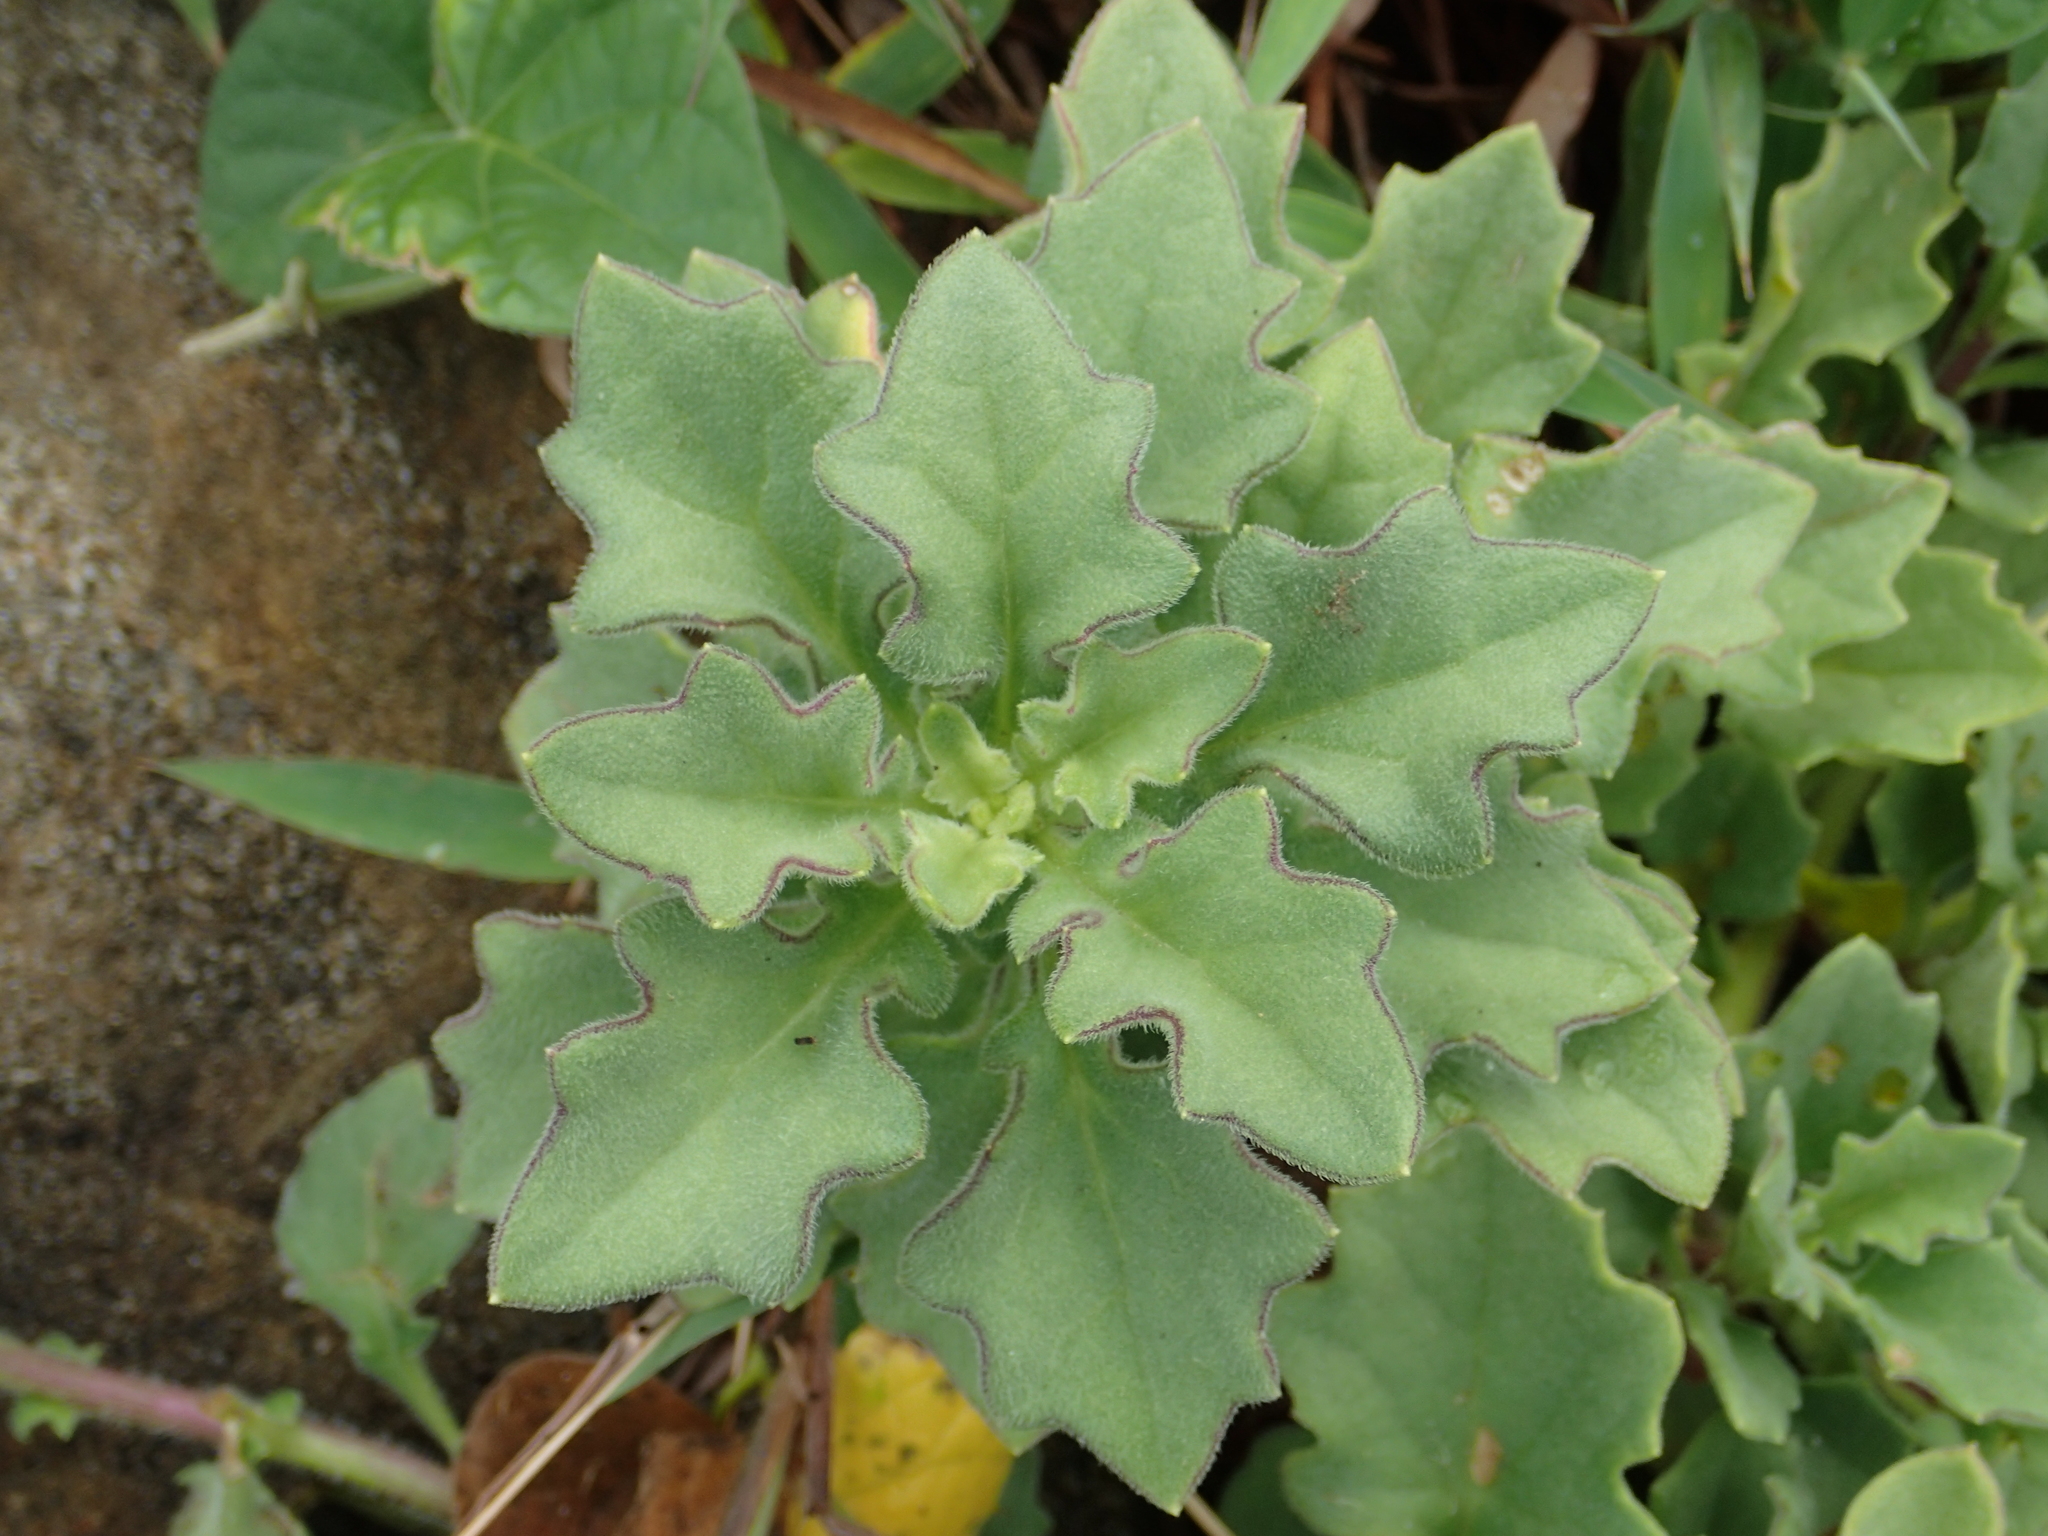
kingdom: Plantae
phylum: Tracheophyta
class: Magnoliopsida
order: Asterales
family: Asteraceae
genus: Gynura
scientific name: Gynura formosana
